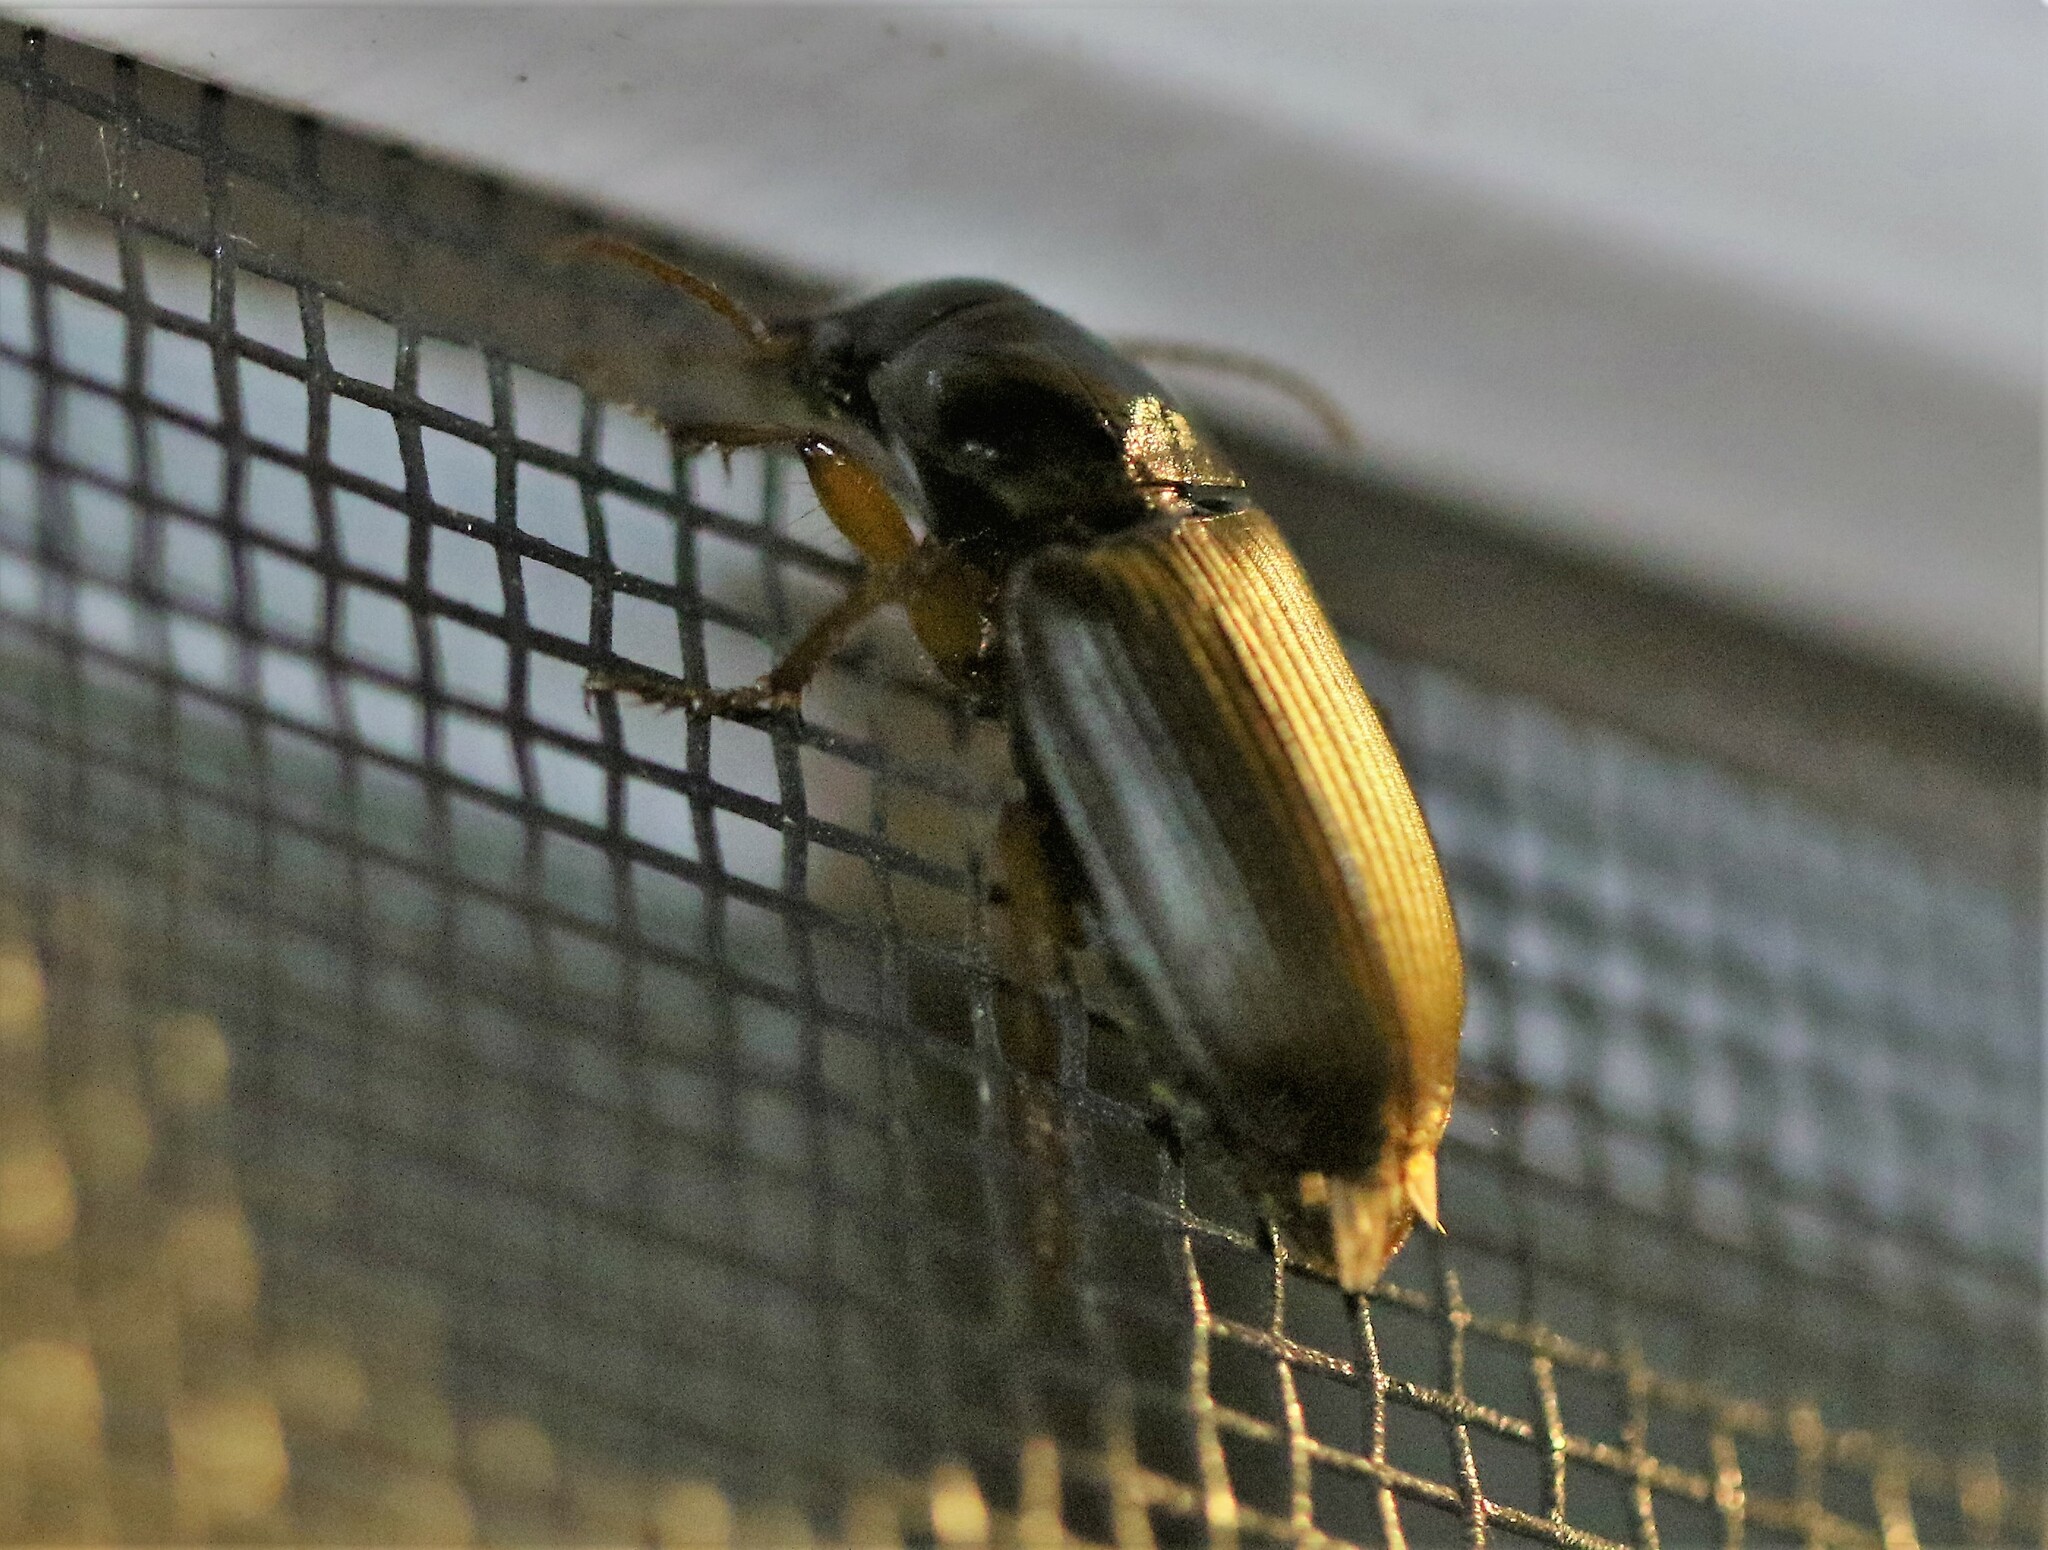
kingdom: Animalia
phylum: Arthropoda
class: Insecta
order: Coleoptera
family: Carabidae
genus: Harpalus
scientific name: Harpalus pensylvanicus
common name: Pennsylvania dingy ground beetle
